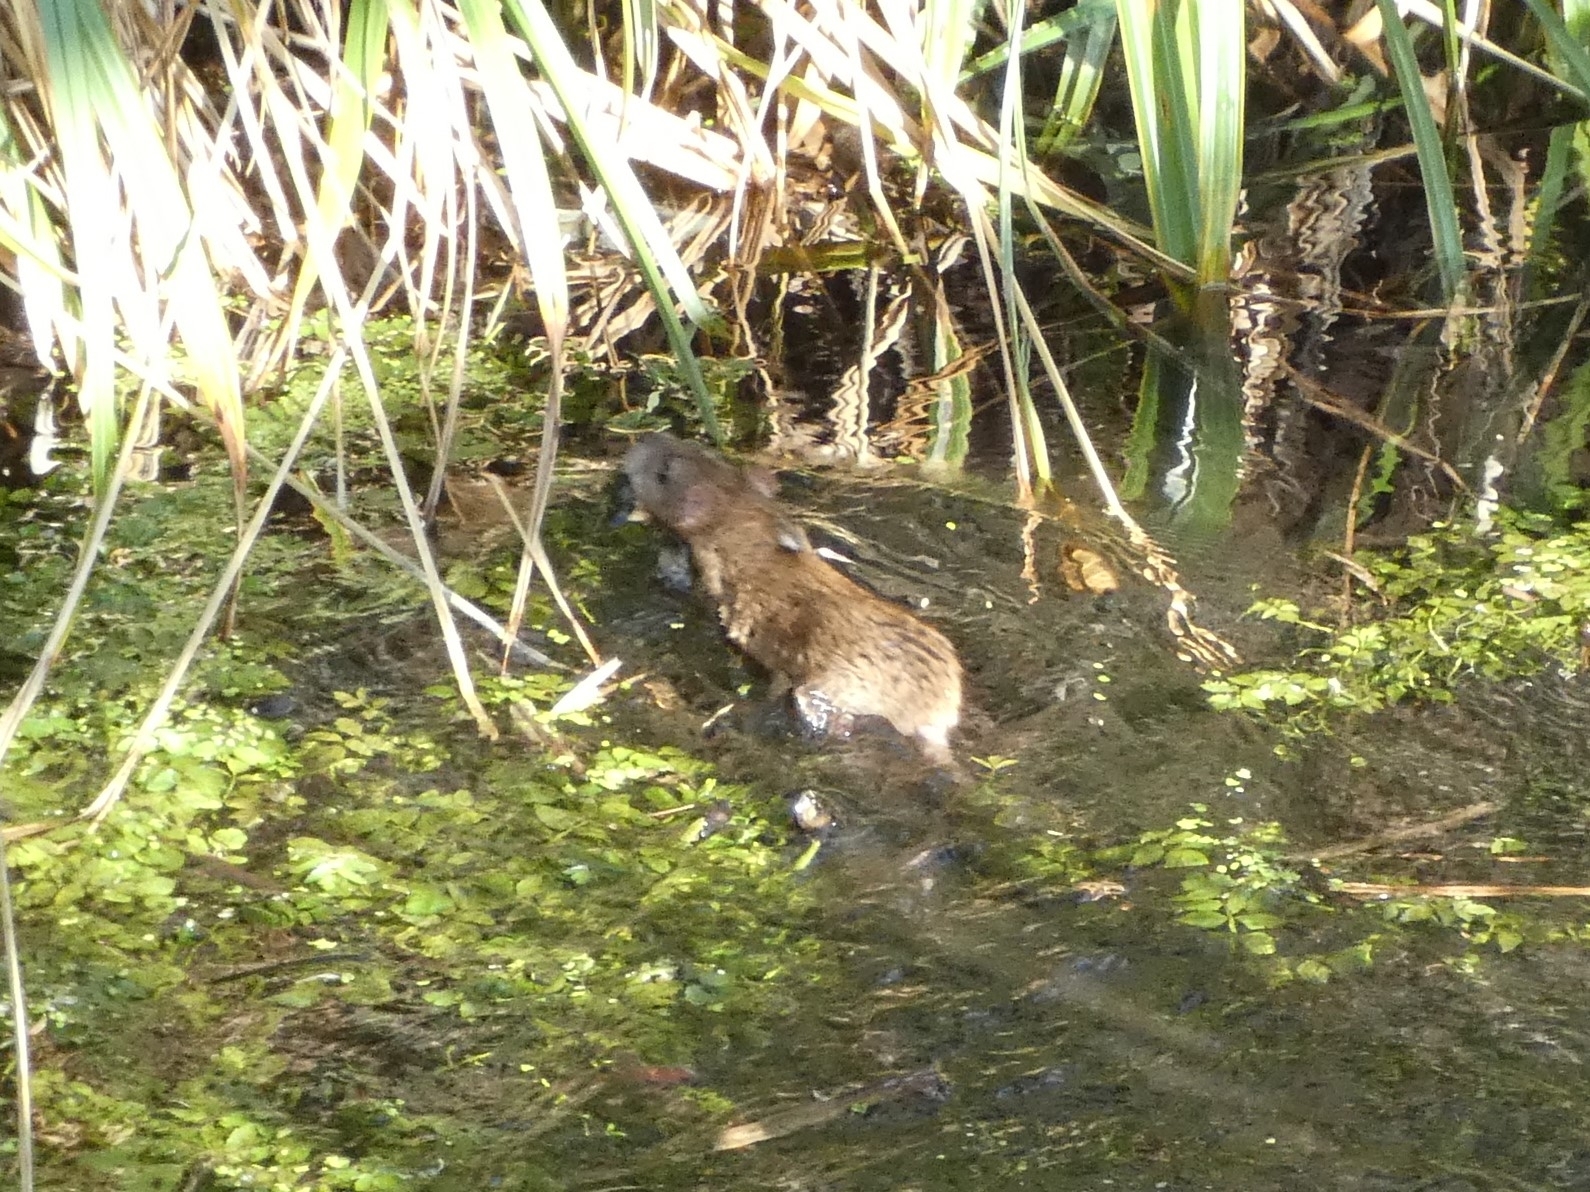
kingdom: Animalia
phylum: Chordata
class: Mammalia
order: Rodentia
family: Muridae
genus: Rattus
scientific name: Rattus norvegicus
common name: Brown rat
